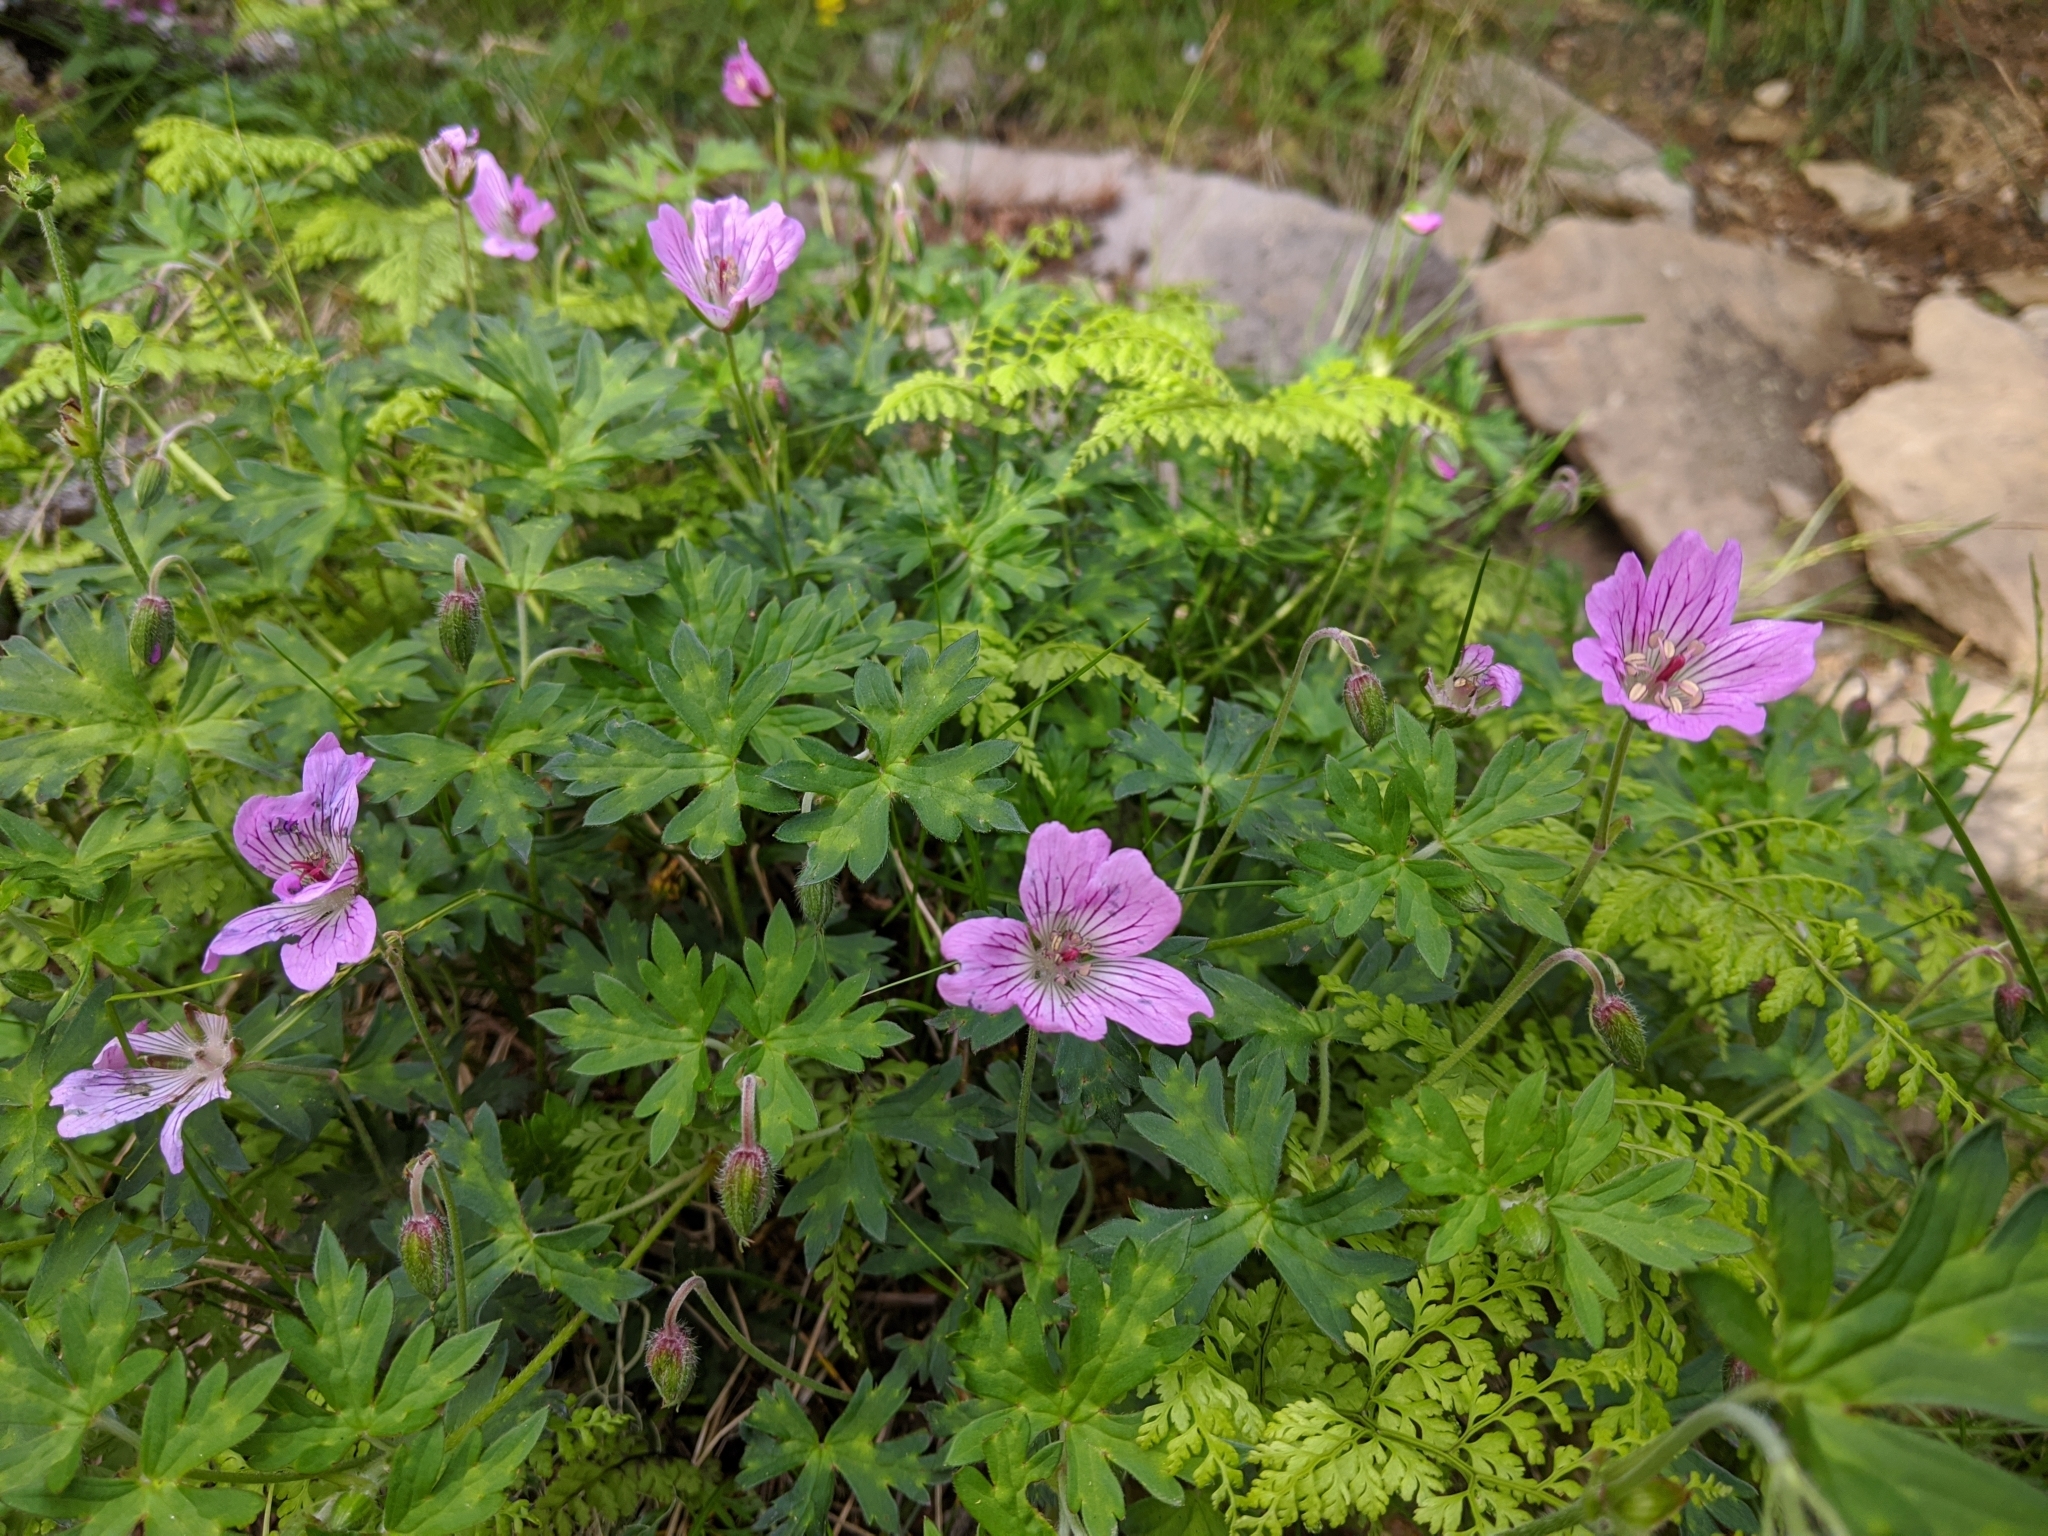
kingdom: Plantae
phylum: Tracheophyta
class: Magnoliopsida
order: Geraniales
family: Geraniaceae
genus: Geranium
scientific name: Geranium hayatanum
